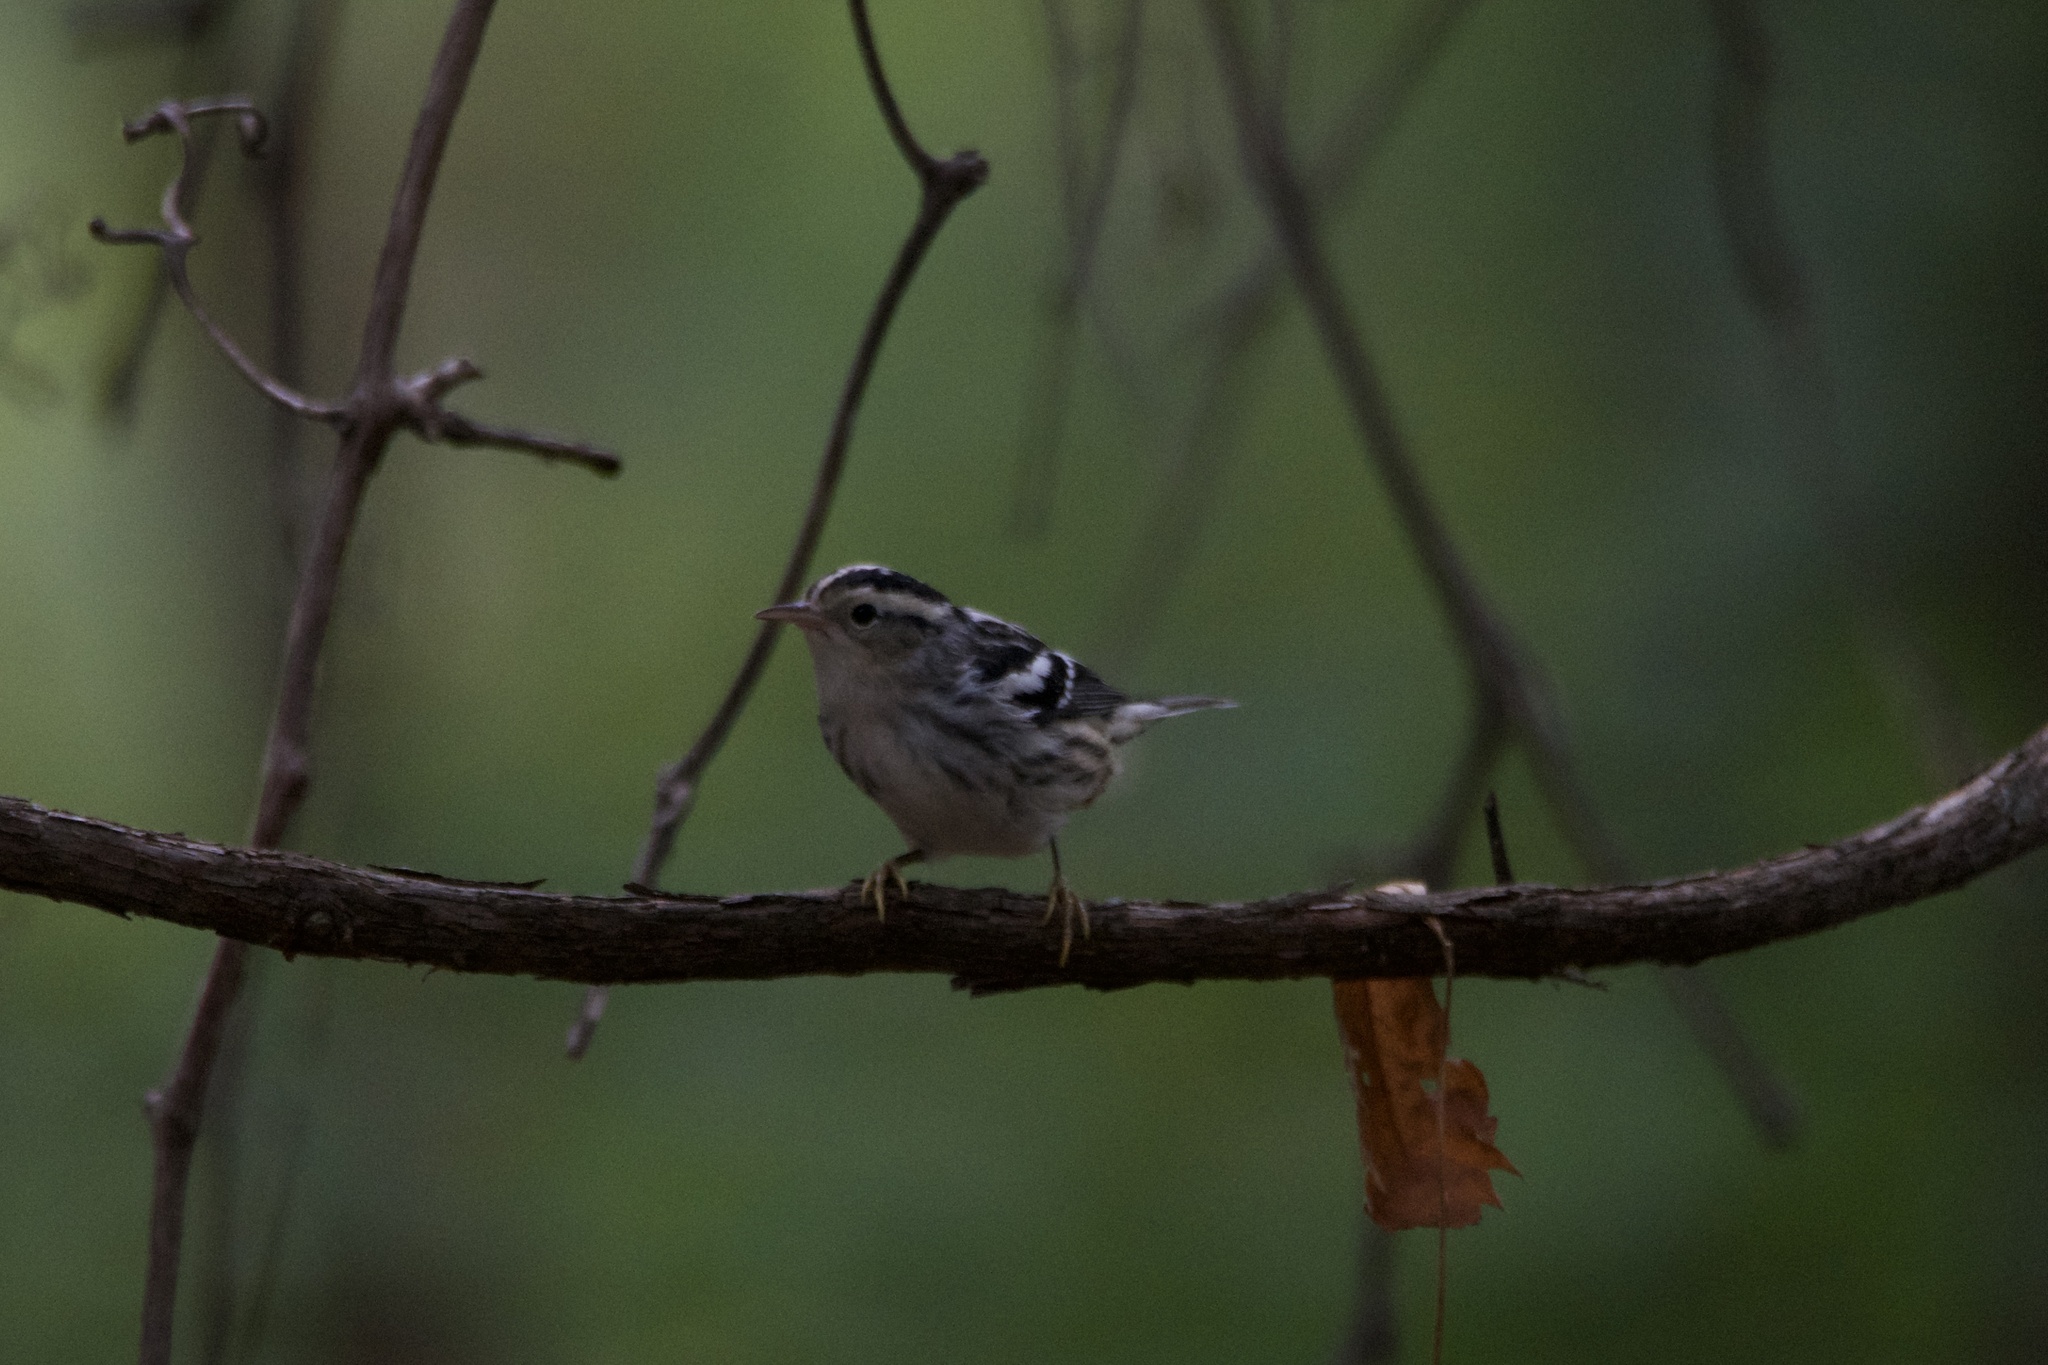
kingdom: Animalia
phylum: Chordata
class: Aves
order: Passeriformes
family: Parulidae
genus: Mniotilta
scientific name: Mniotilta varia
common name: Black-and-white warbler
